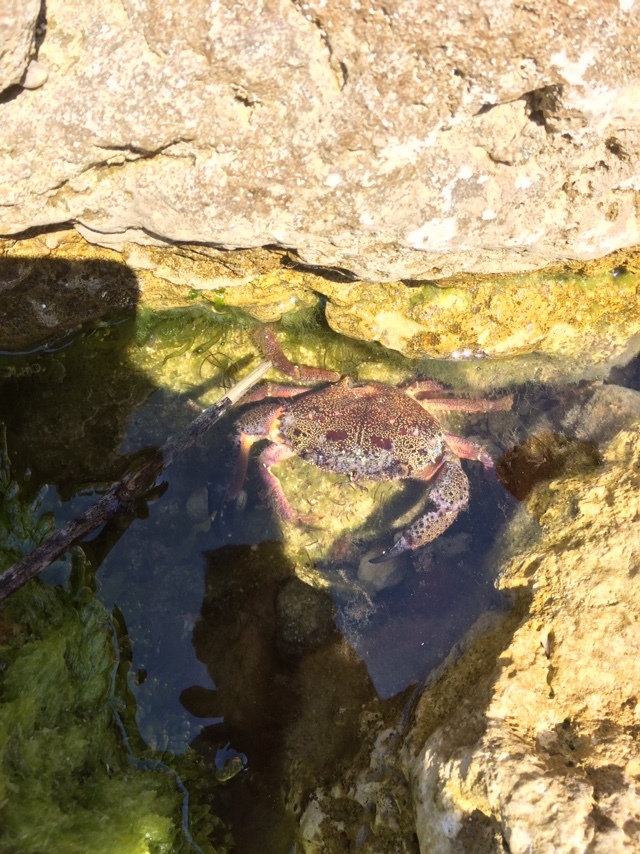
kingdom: Animalia
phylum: Arthropoda
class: Malacostraca
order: Decapoda
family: Eriphiidae
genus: Eriphia
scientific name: Eriphia verrucosa
